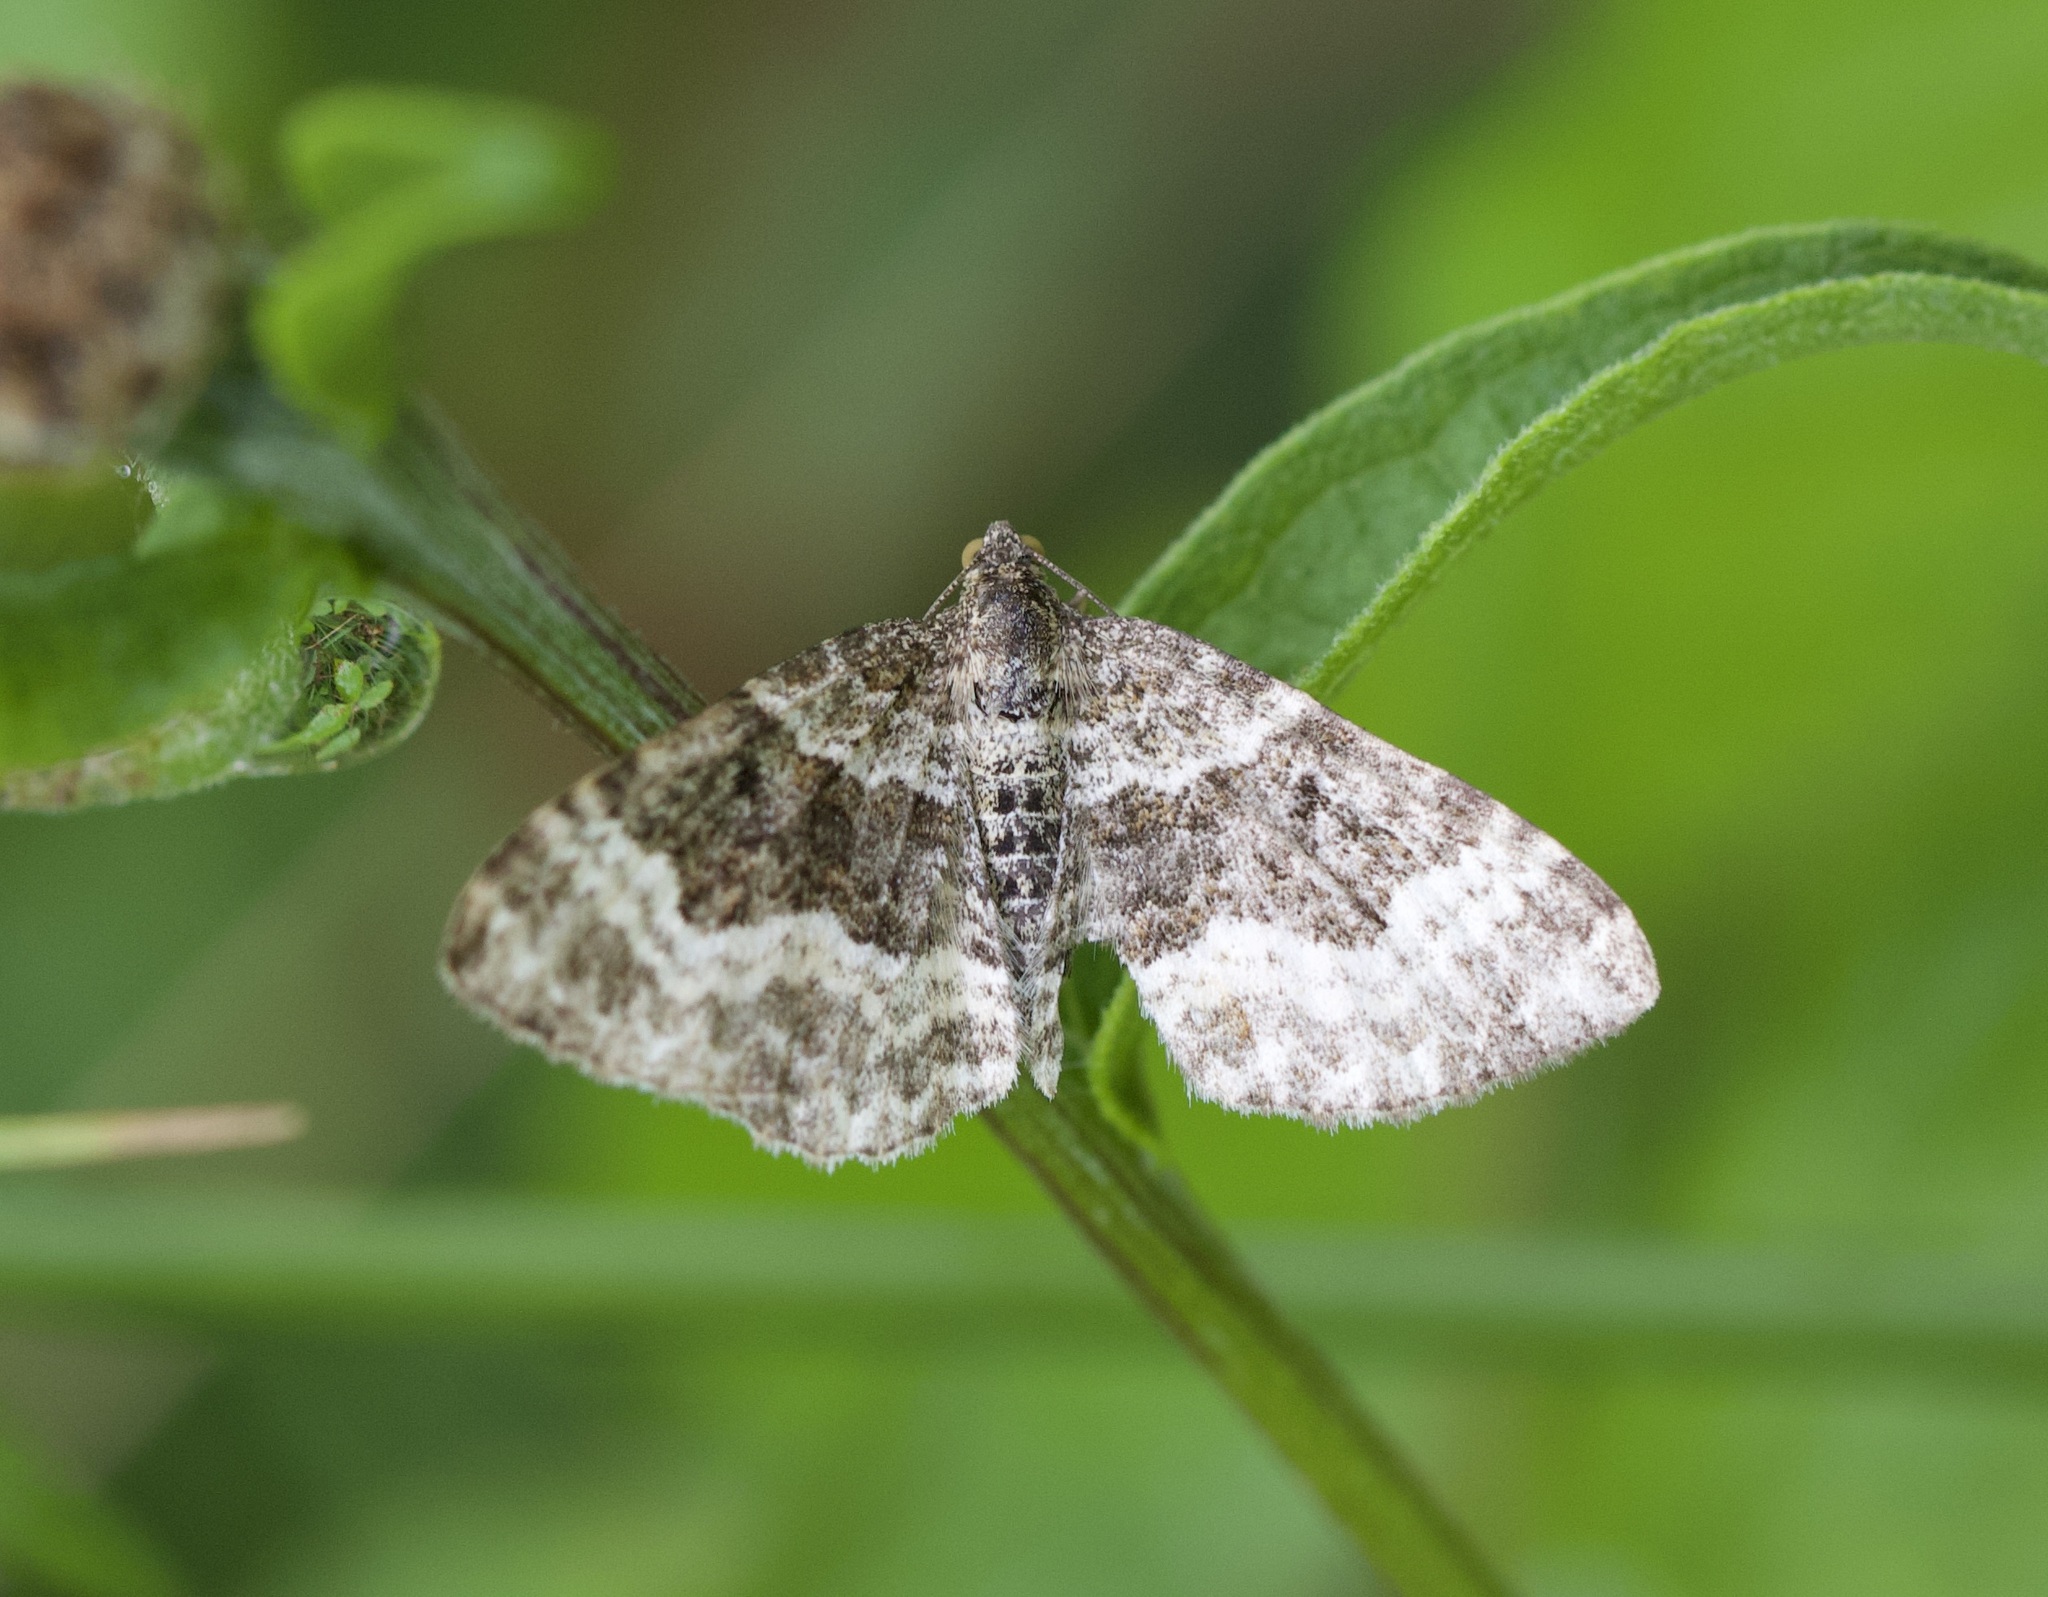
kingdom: Animalia
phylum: Arthropoda
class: Insecta
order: Lepidoptera
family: Geometridae
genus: Epirrhoe
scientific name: Epirrhoe alternata
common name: Common carpet
